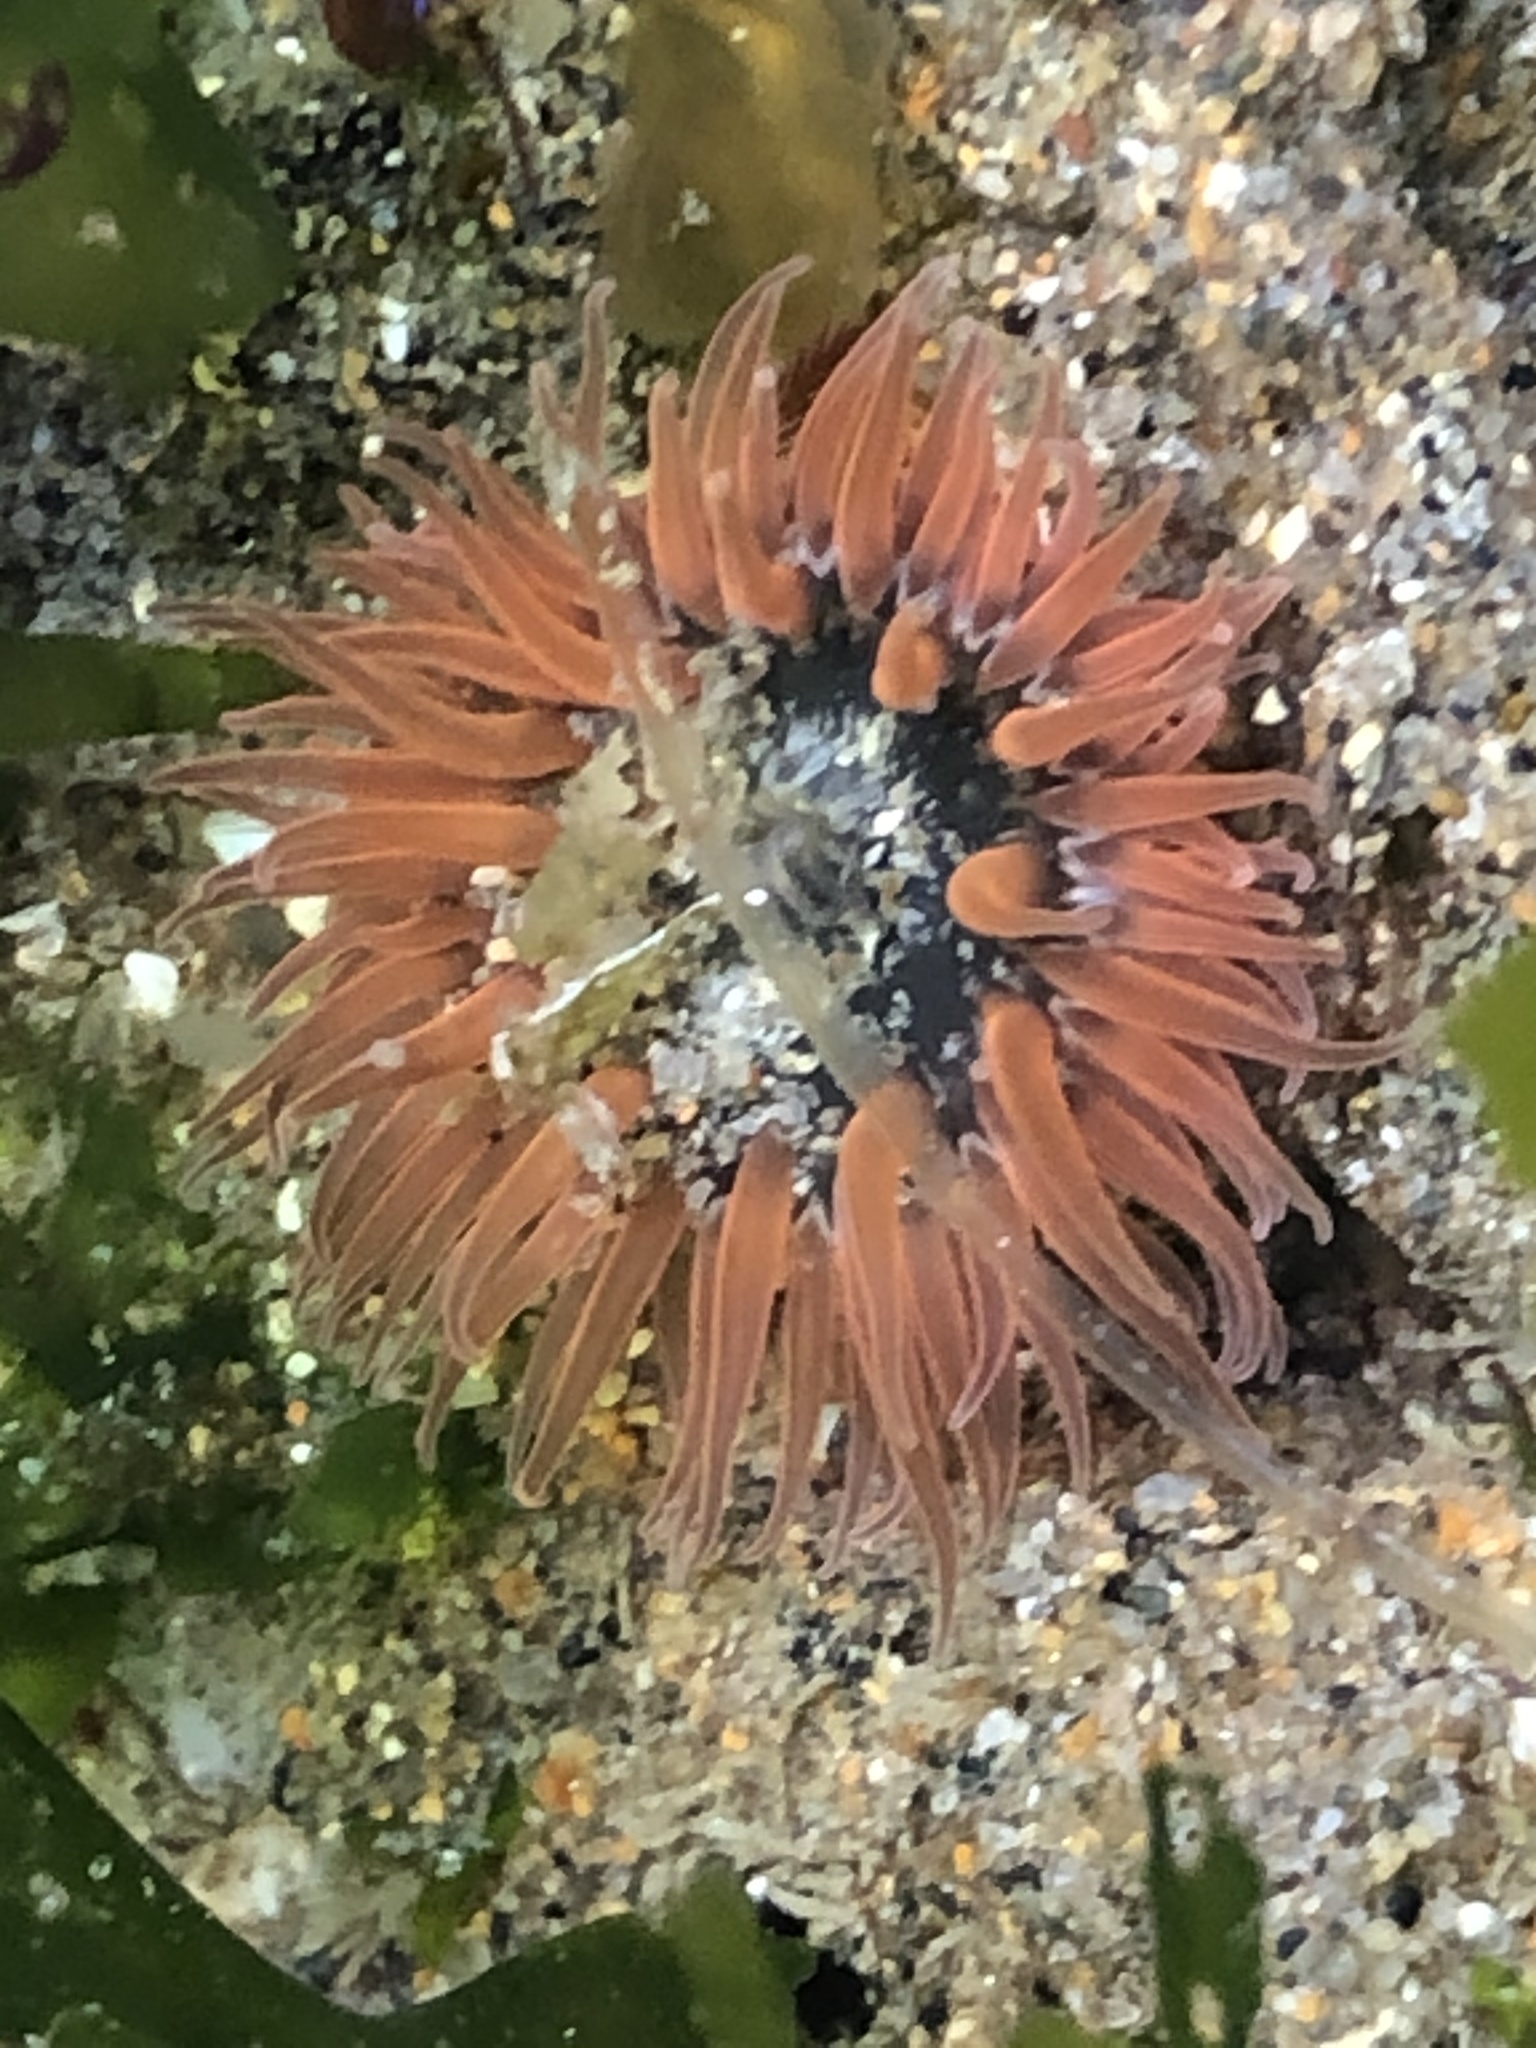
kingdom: Animalia
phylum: Cnidaria
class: Anthozoa
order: Actiniaria
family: Actiniidae
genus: Anthopleura
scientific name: Anthopleura artemisia
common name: Buried sea anemone
